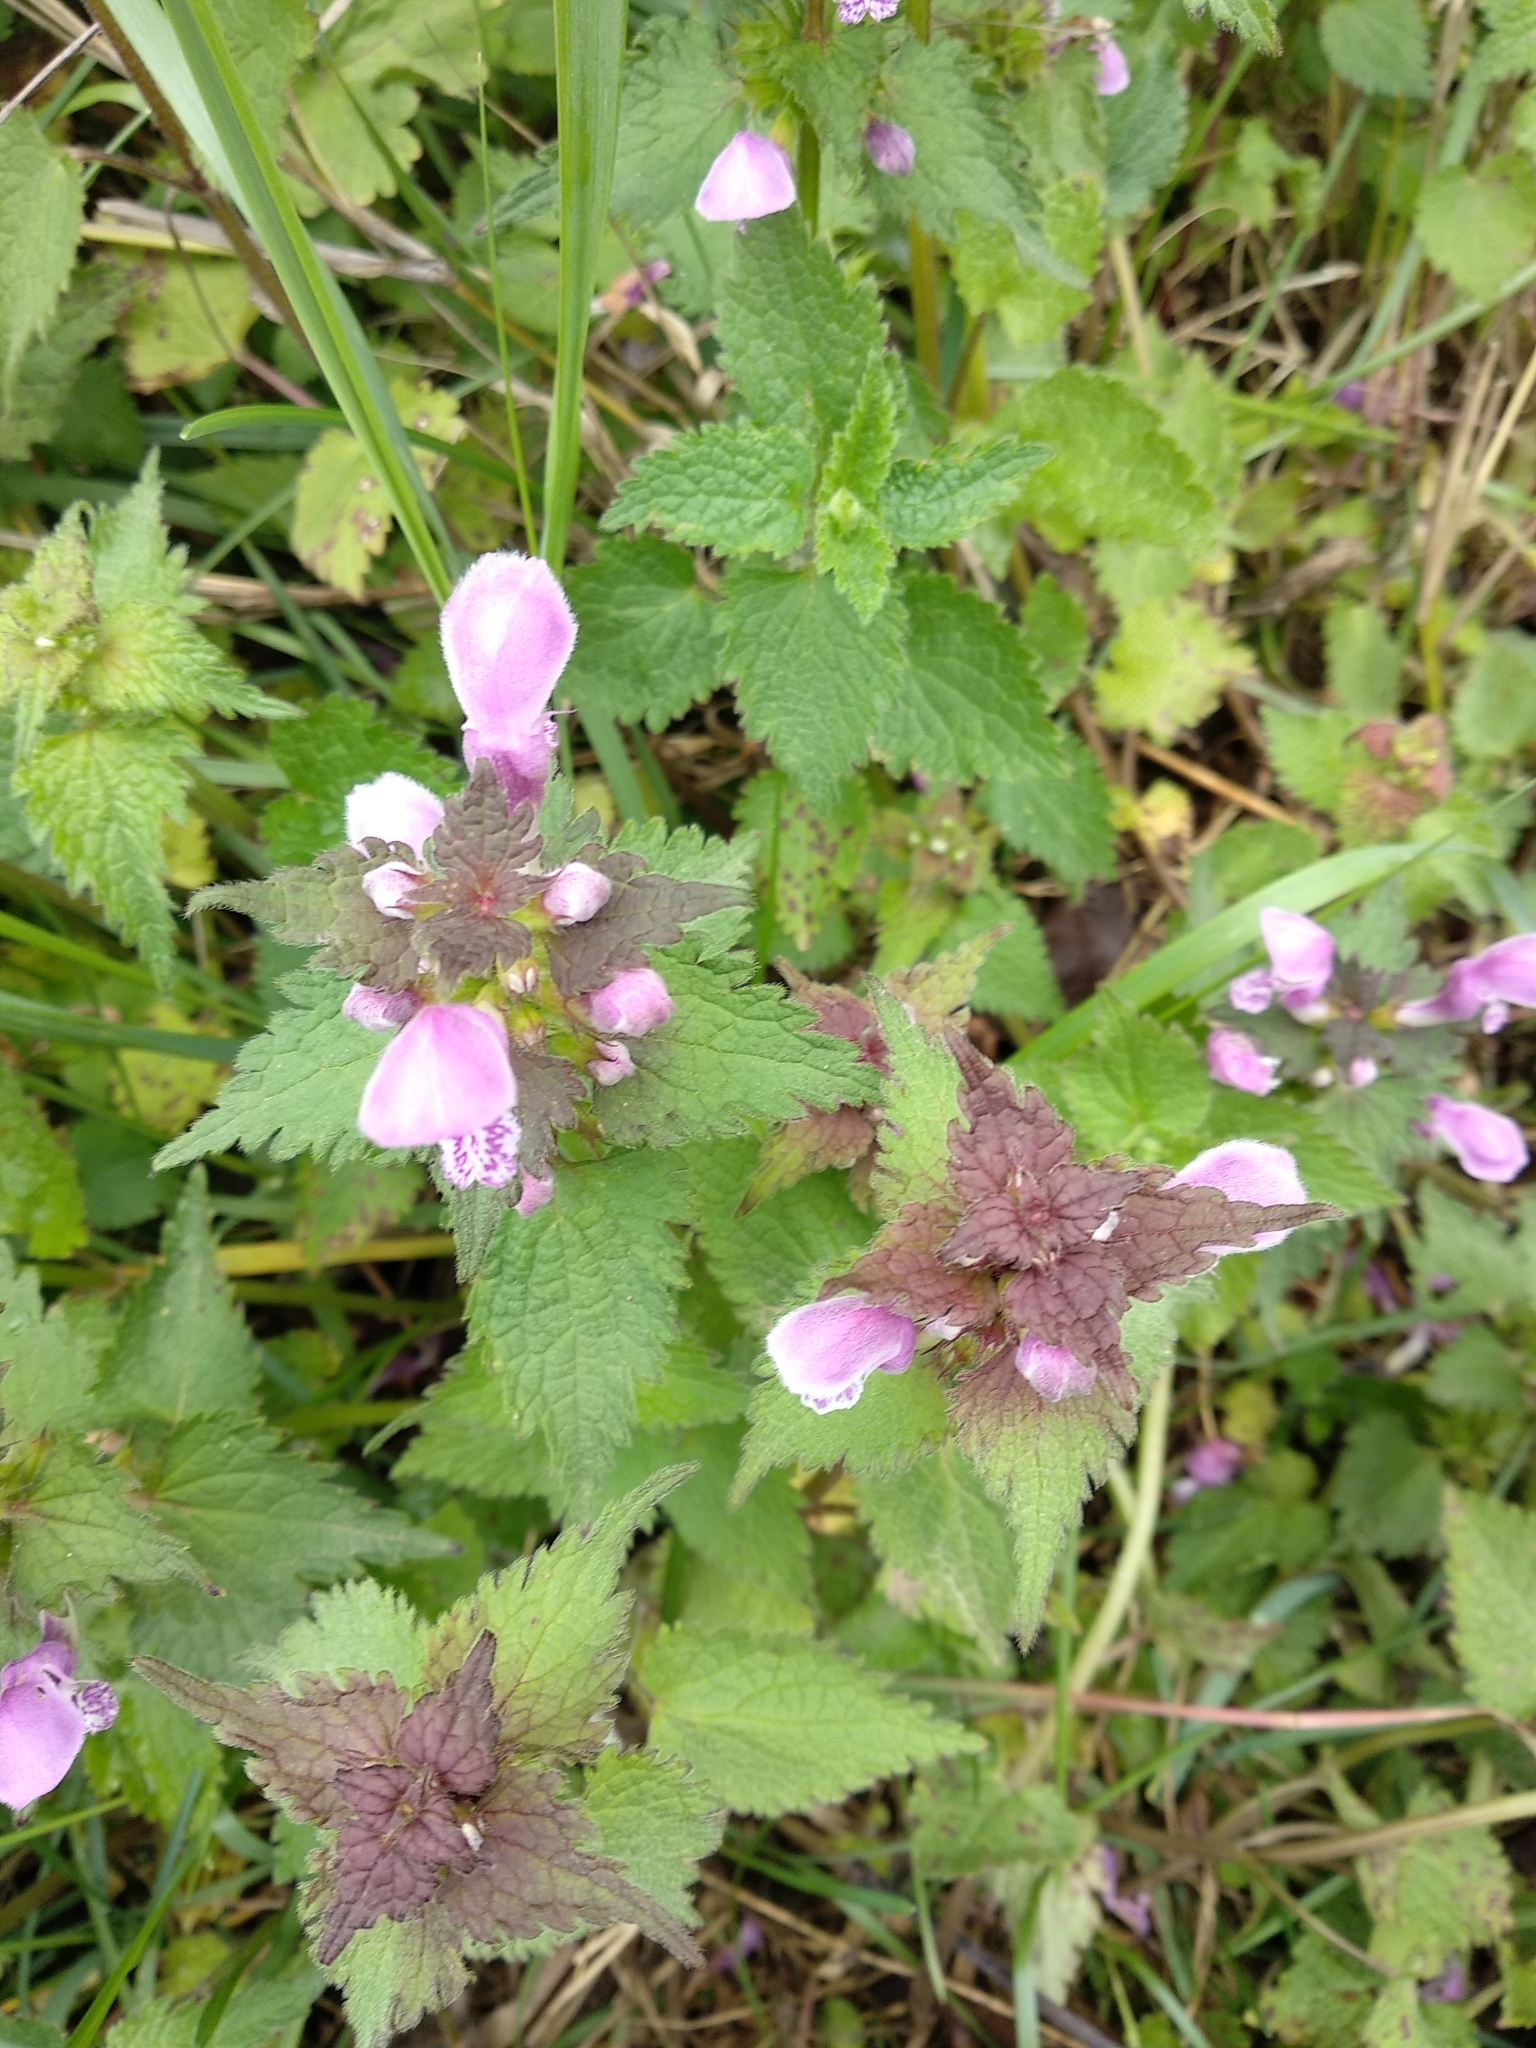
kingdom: Plantae
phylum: Tracheophyta
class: Magnoliopsida
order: Lamiales
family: Lamiaceae
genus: Lamium
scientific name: Lamium maculatum
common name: Spotted dead-nettle
